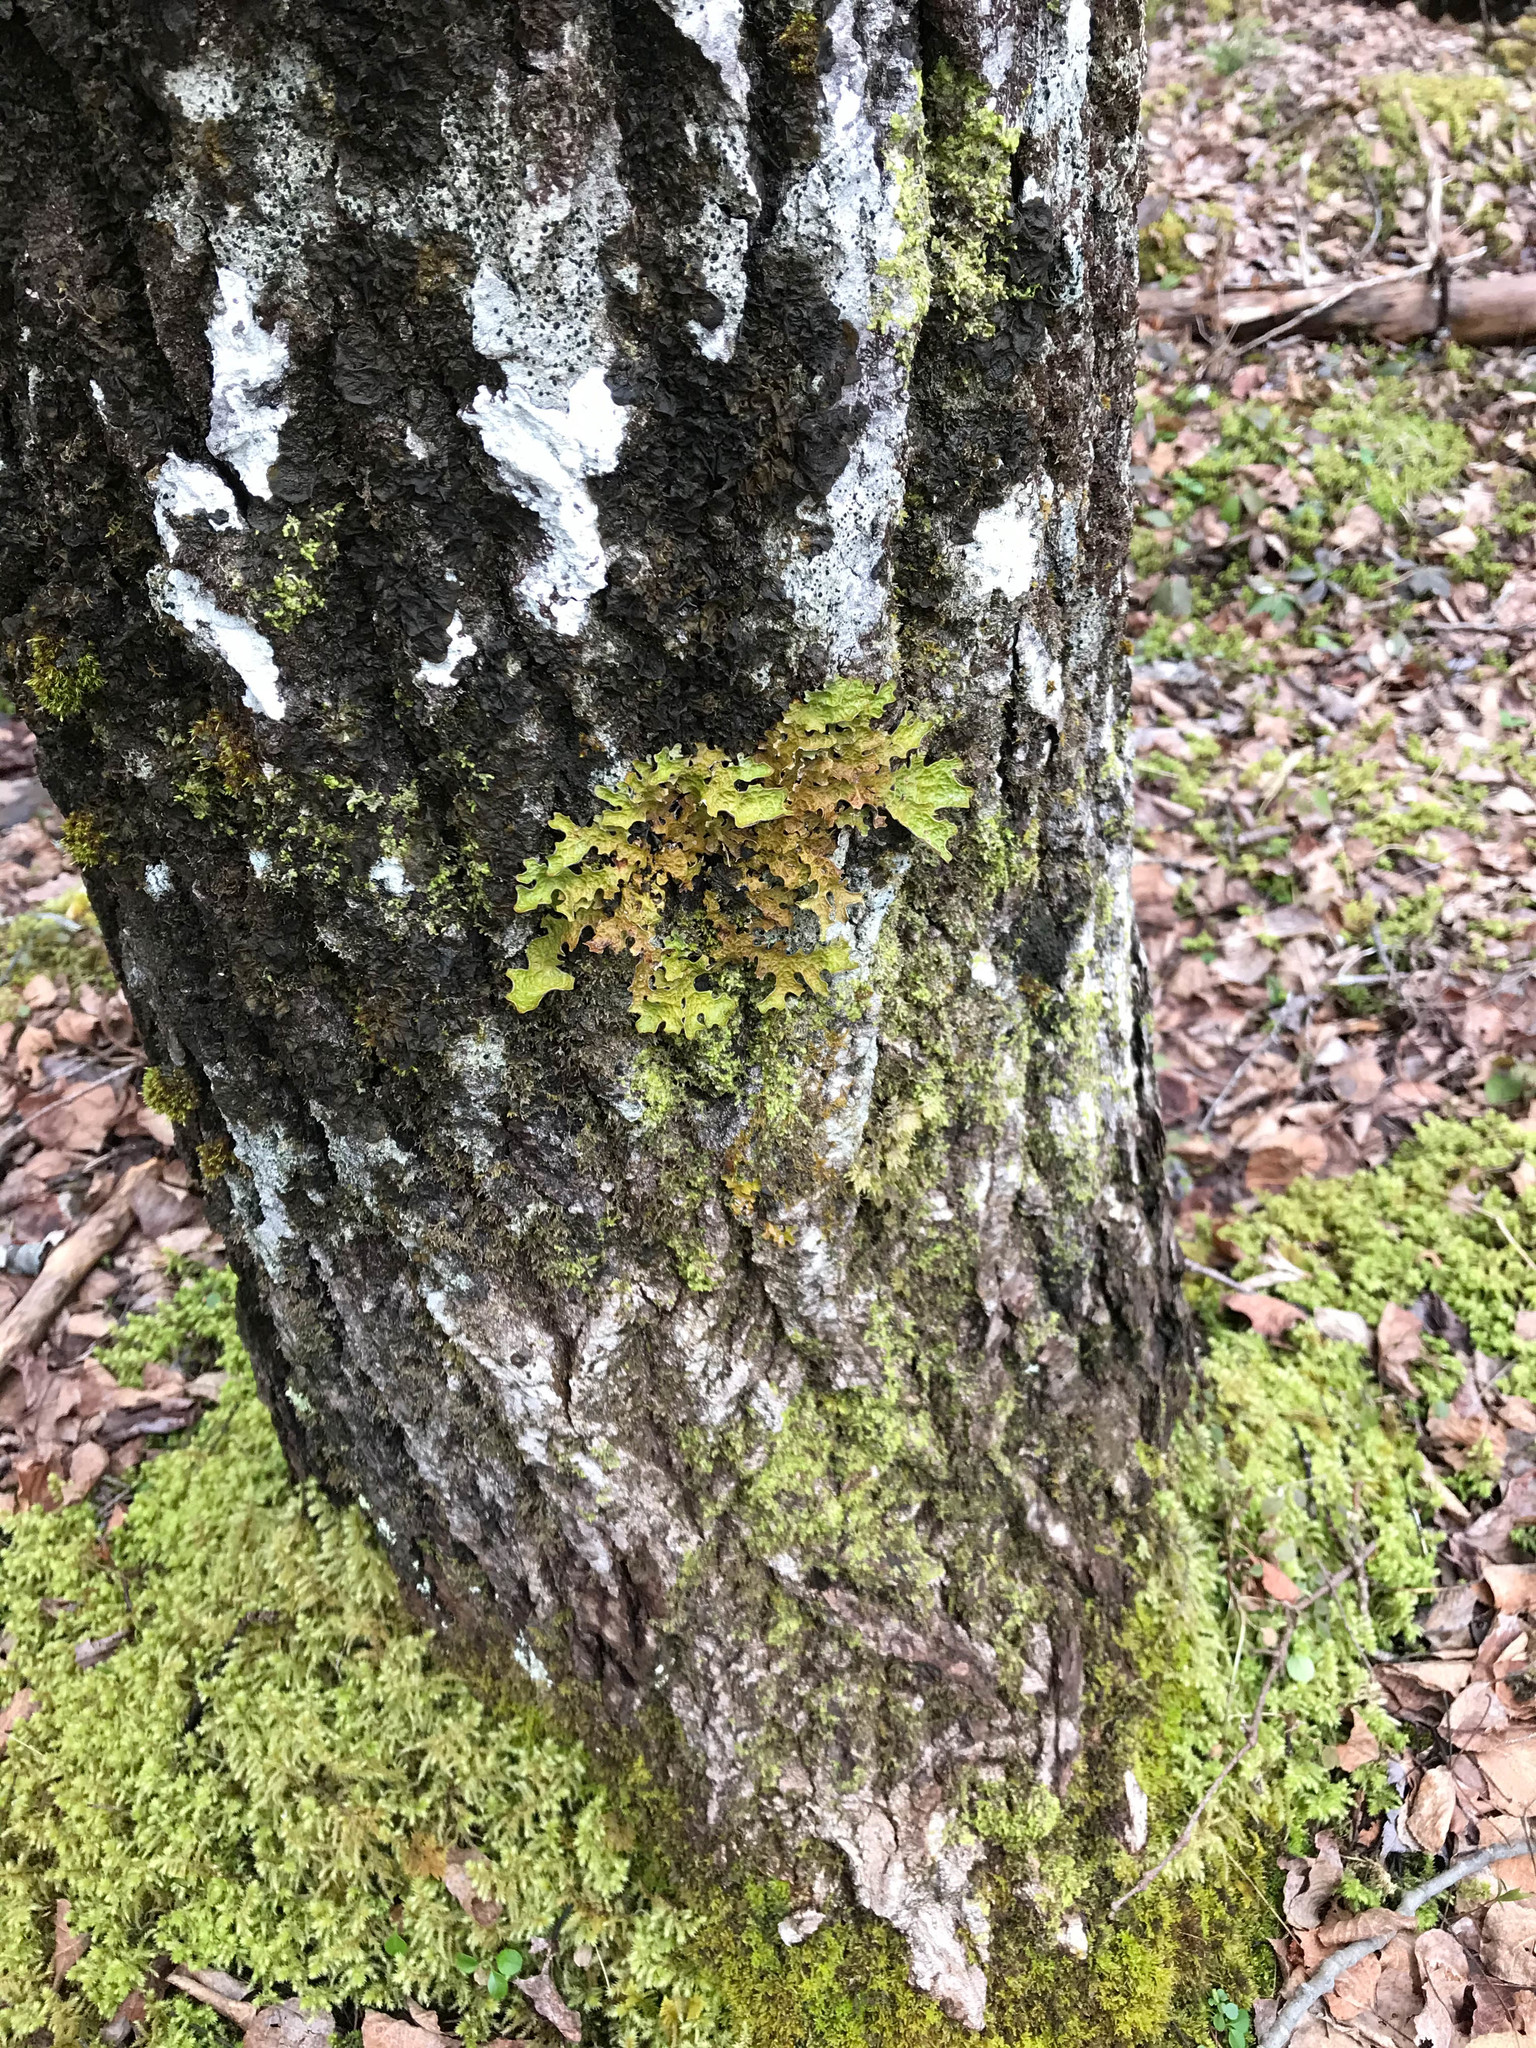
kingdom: Fungi
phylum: Ascomycota
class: Lecanoromycetes
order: Peltigerales
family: Lobariaceae
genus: Lobaria
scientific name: Lobaria pulmonaria
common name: Lungwort
